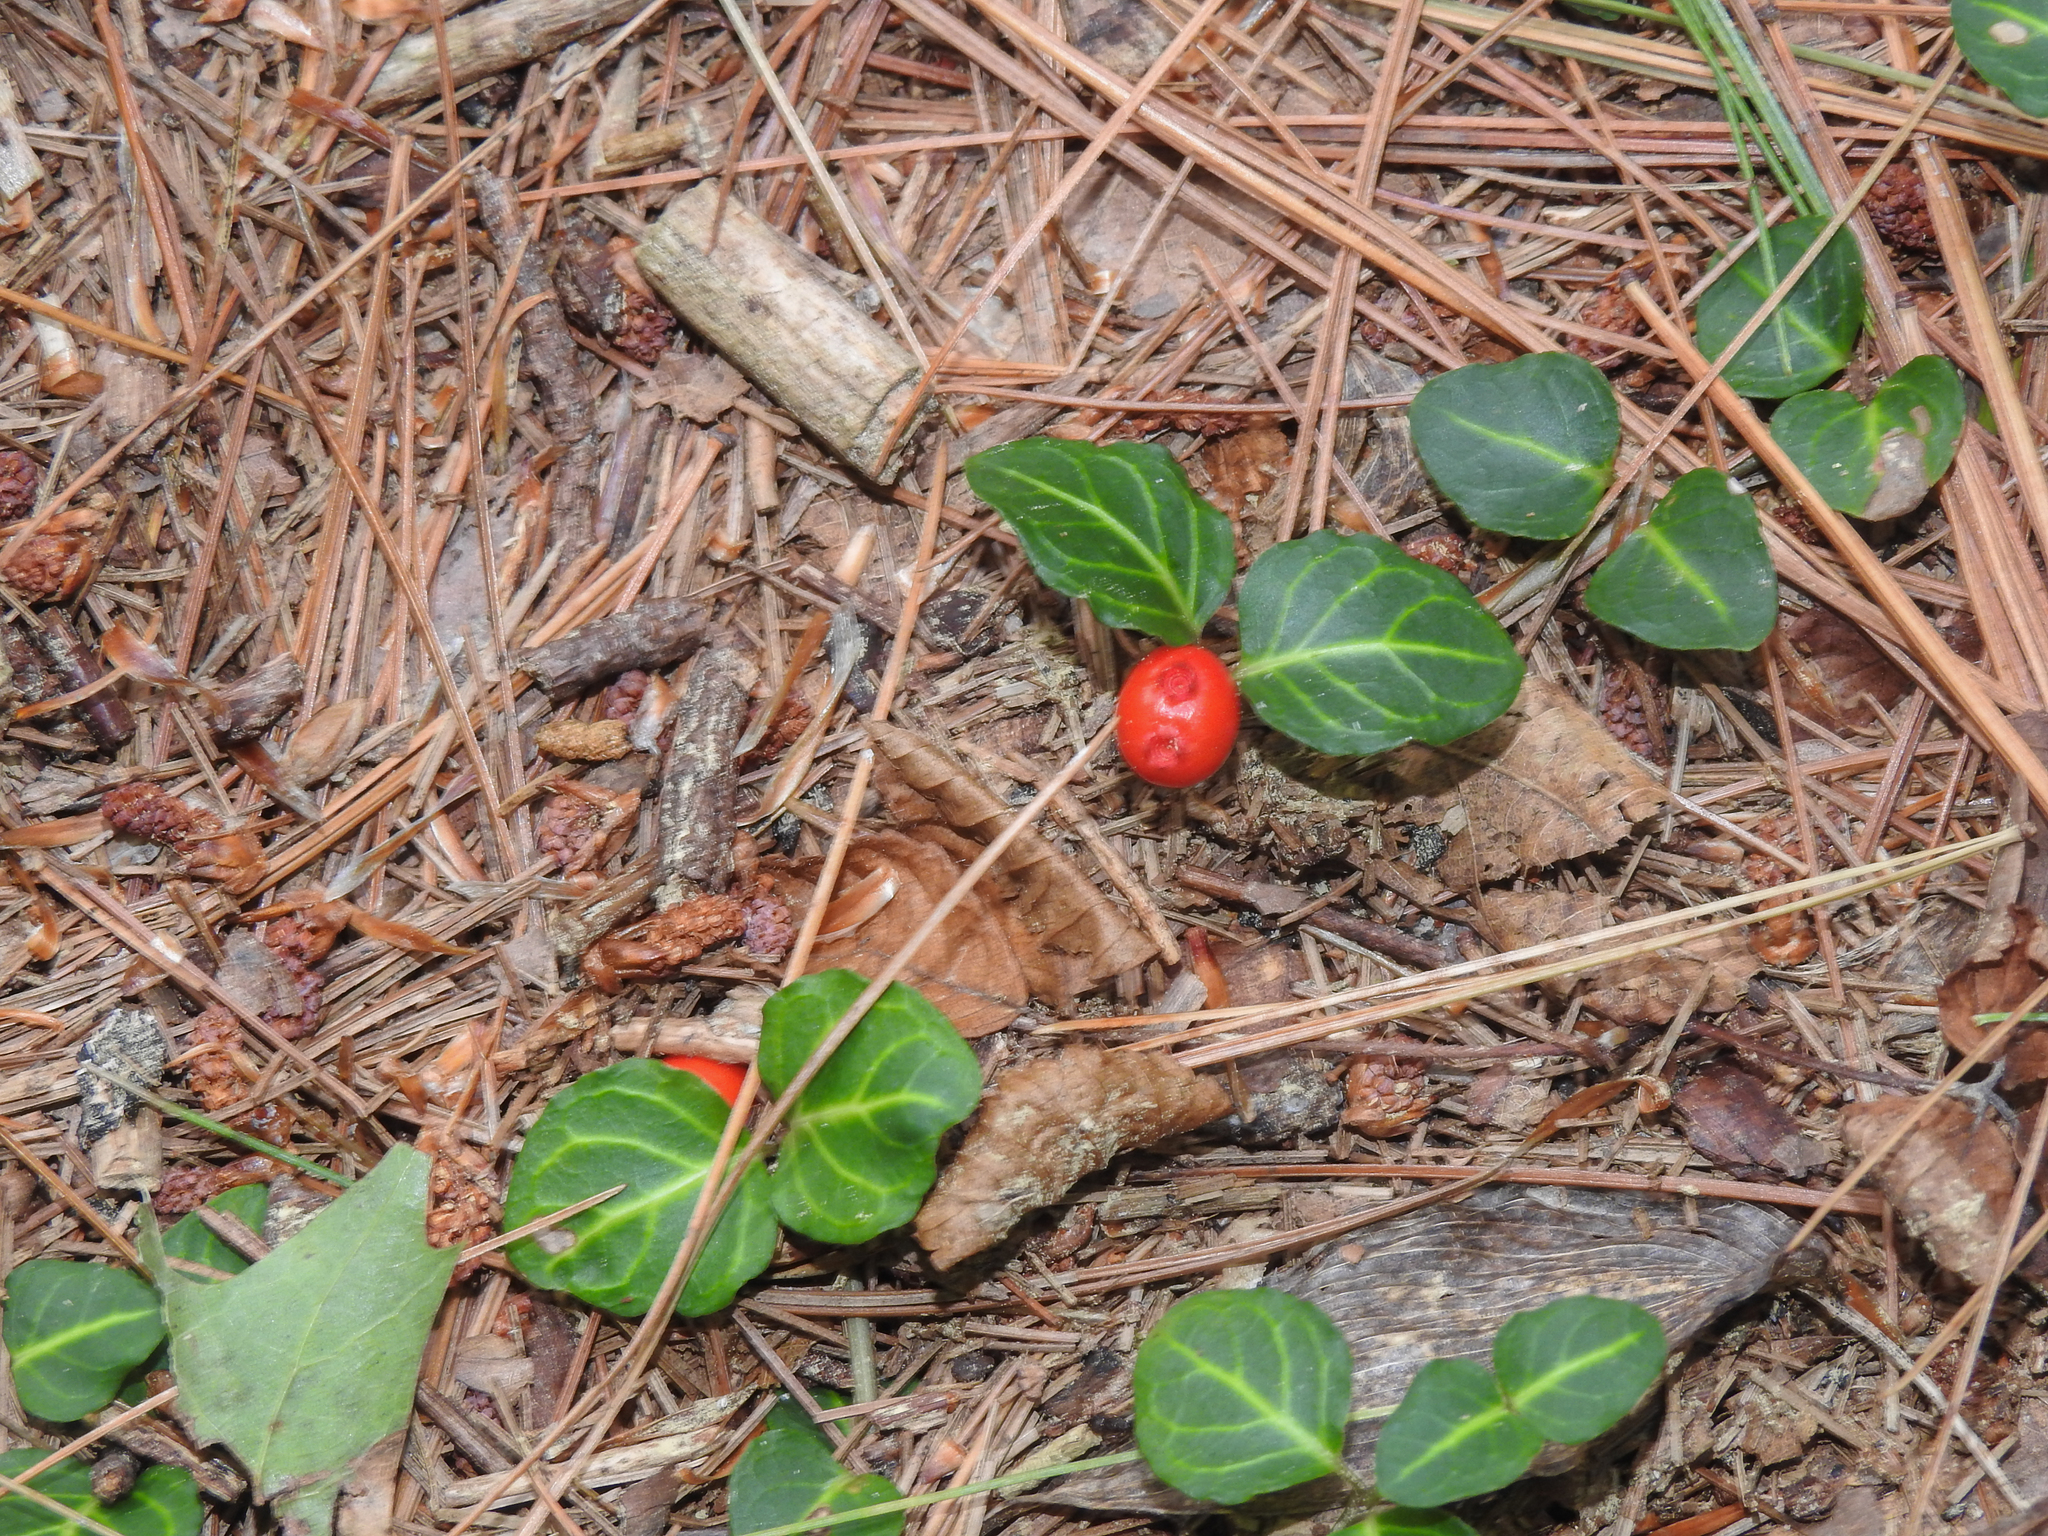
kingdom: Plantae
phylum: Tracheophyta
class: Magnoliopsida
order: Gentianales
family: Rubiaceae
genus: Mitchella
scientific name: Mitchella repens
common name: Partridge-berry
